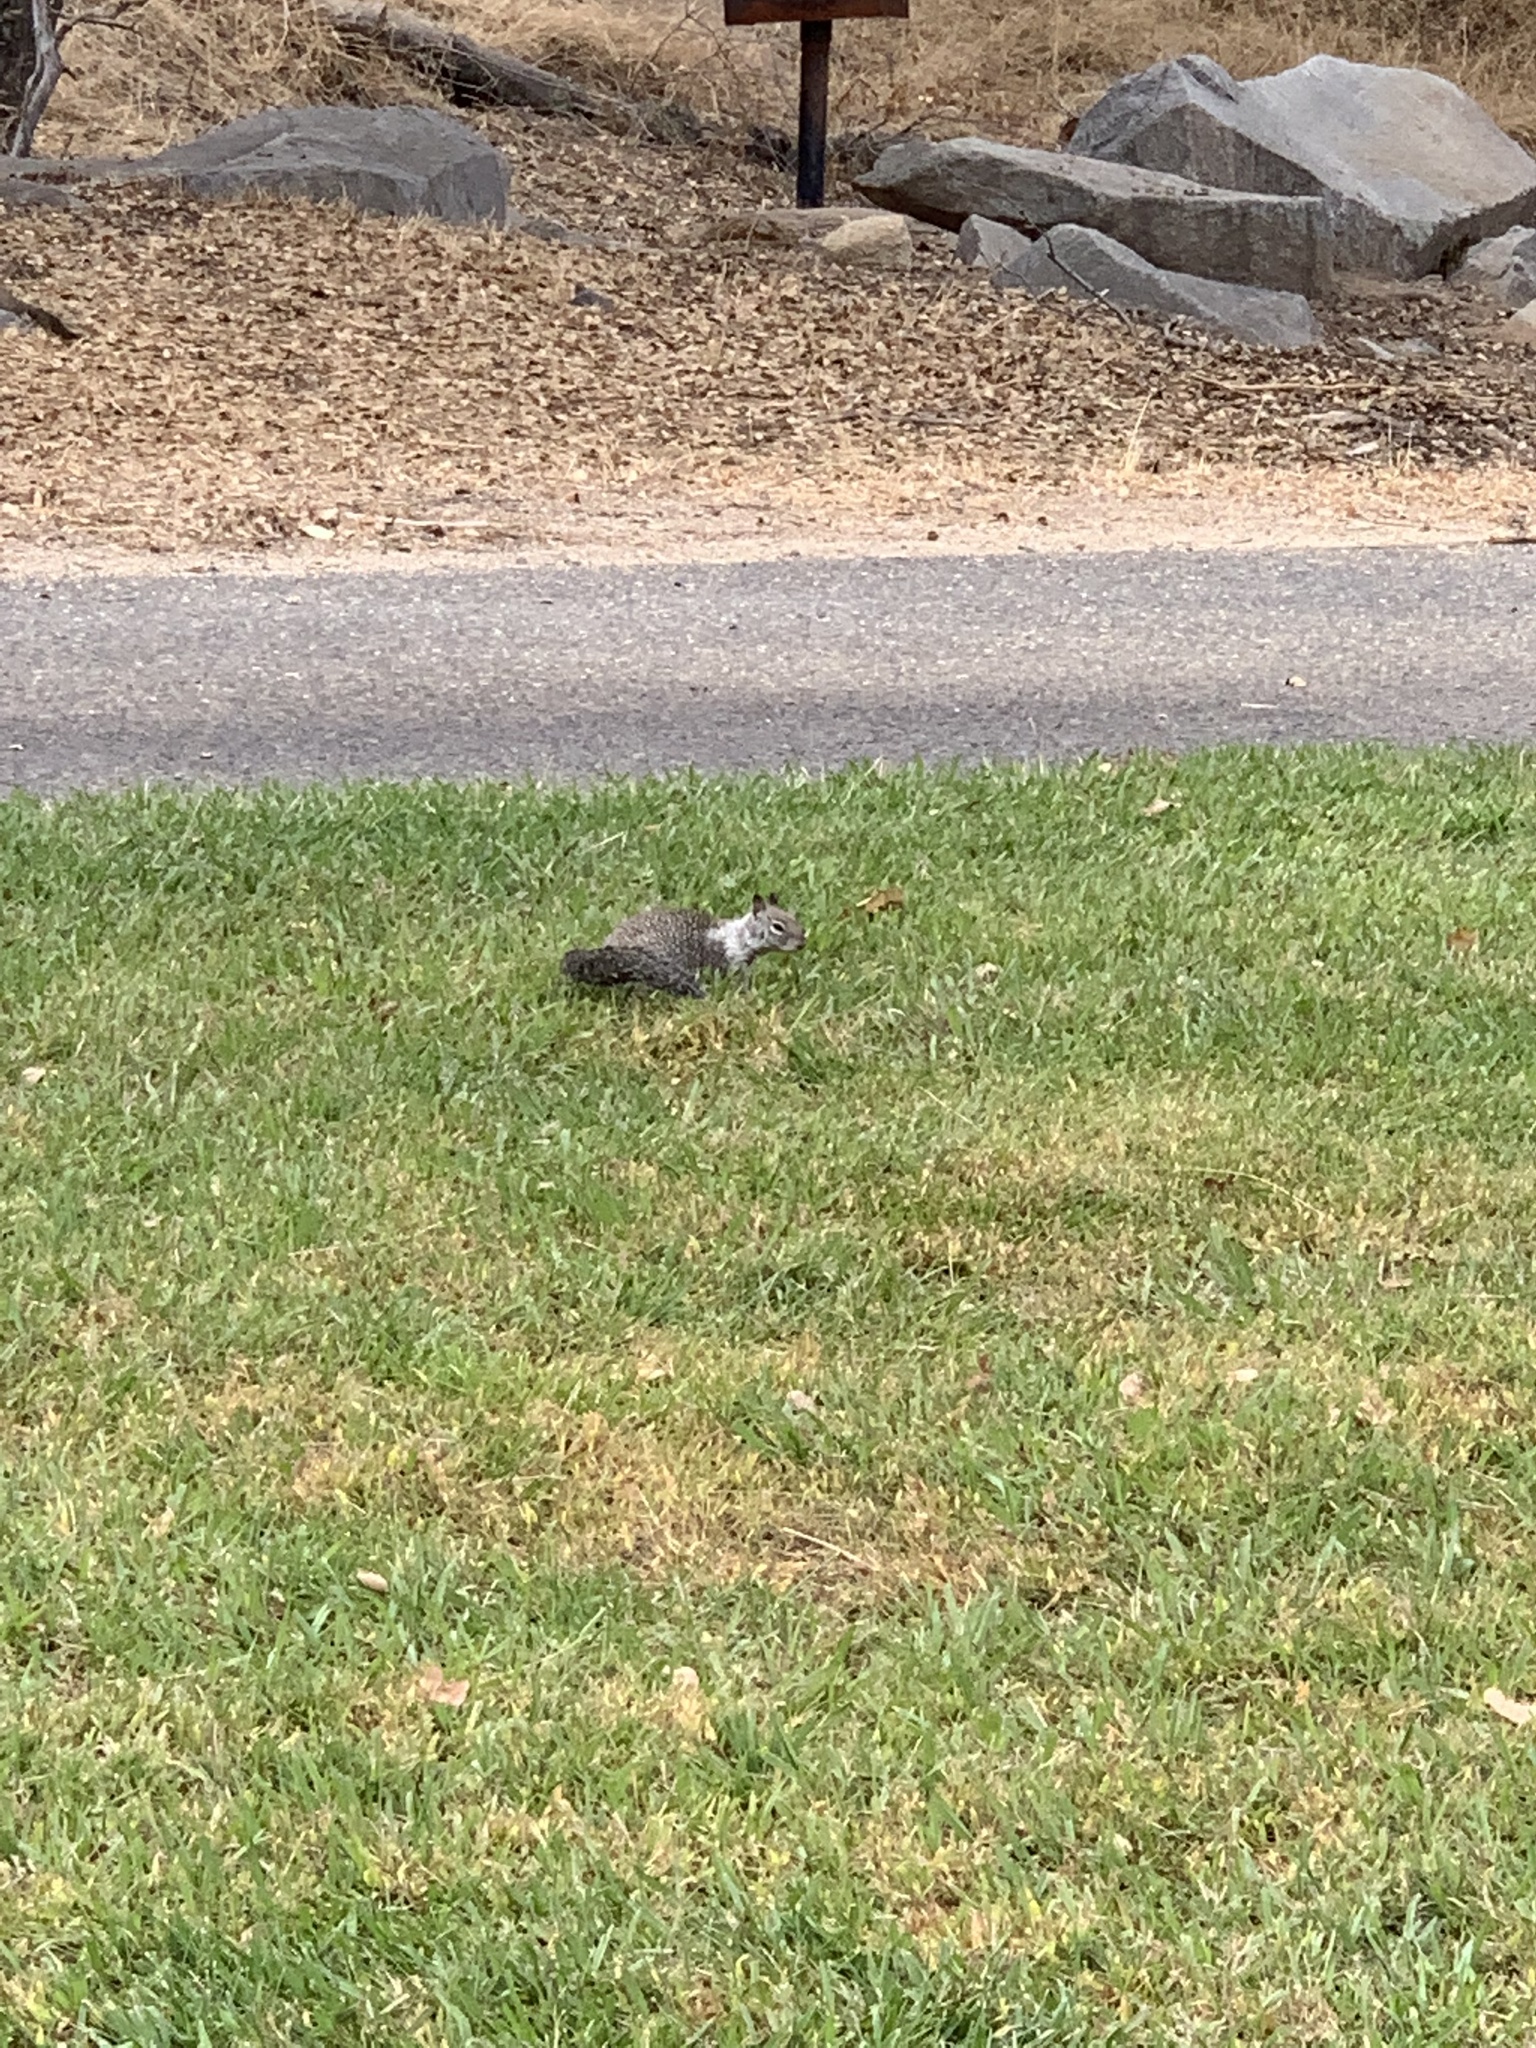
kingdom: Animalia
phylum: Chordata
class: Mammalia
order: Rodentia
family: Sciuridae
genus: Otospermophilus
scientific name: Otospermophilus beecheyi
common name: California ground squirrel
